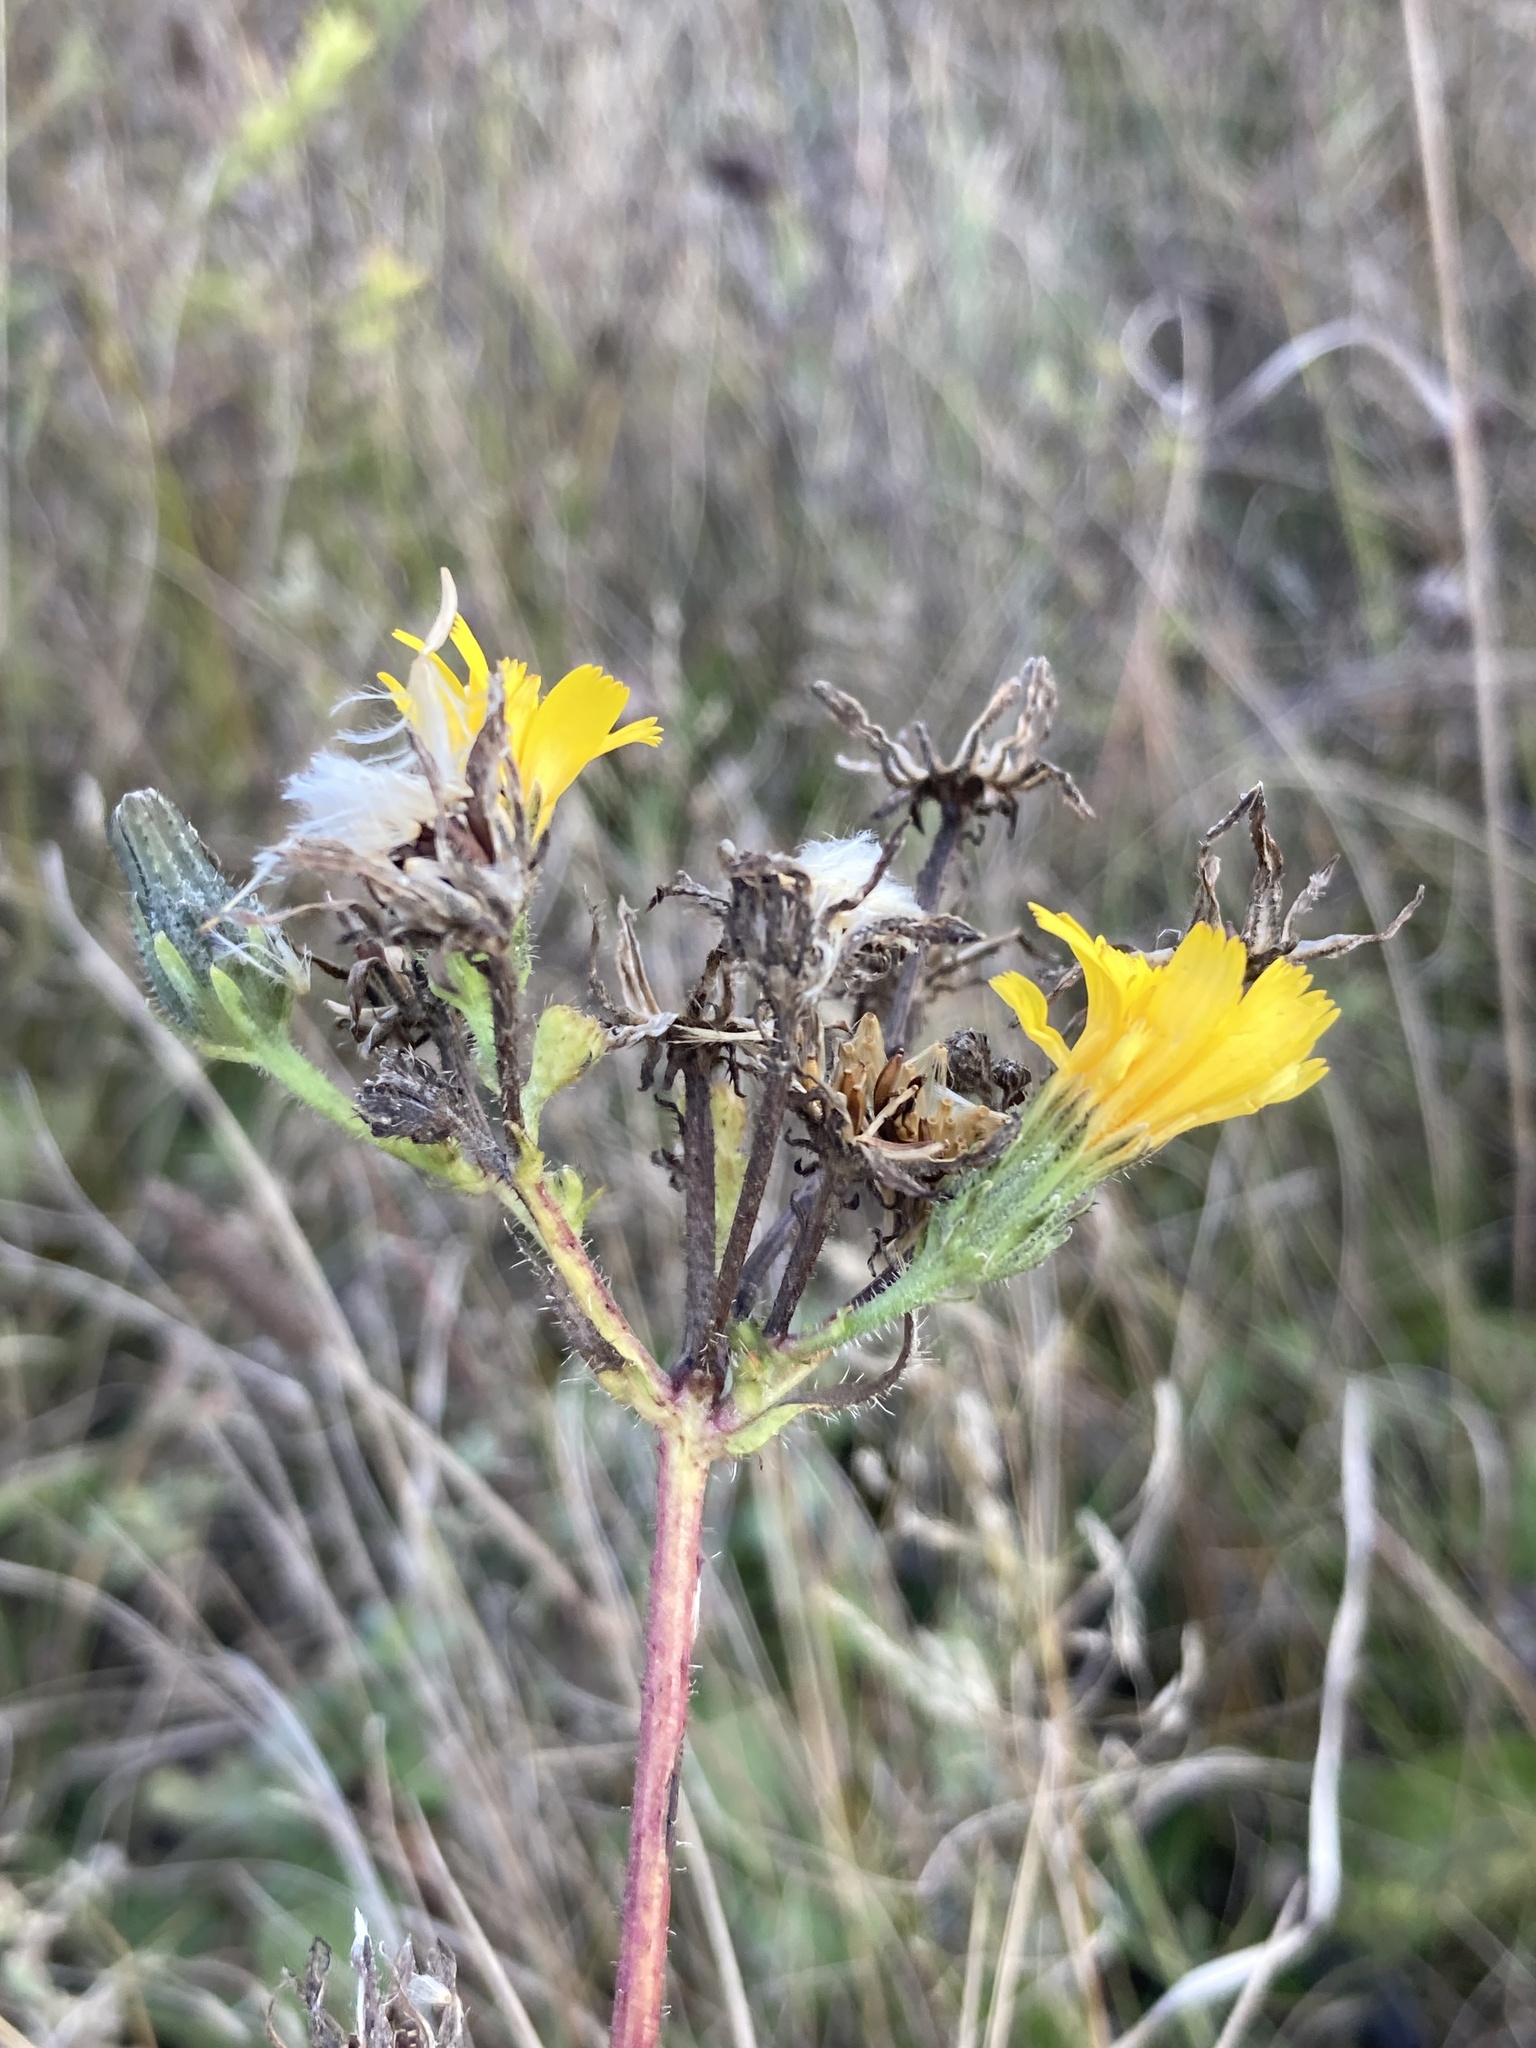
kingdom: Plantae
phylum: Tracheophyta
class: Magnoliopsida
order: Asterales
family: Asteraceae
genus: Picris
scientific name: Picris hieracioides
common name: Hawkweed oxtongue
